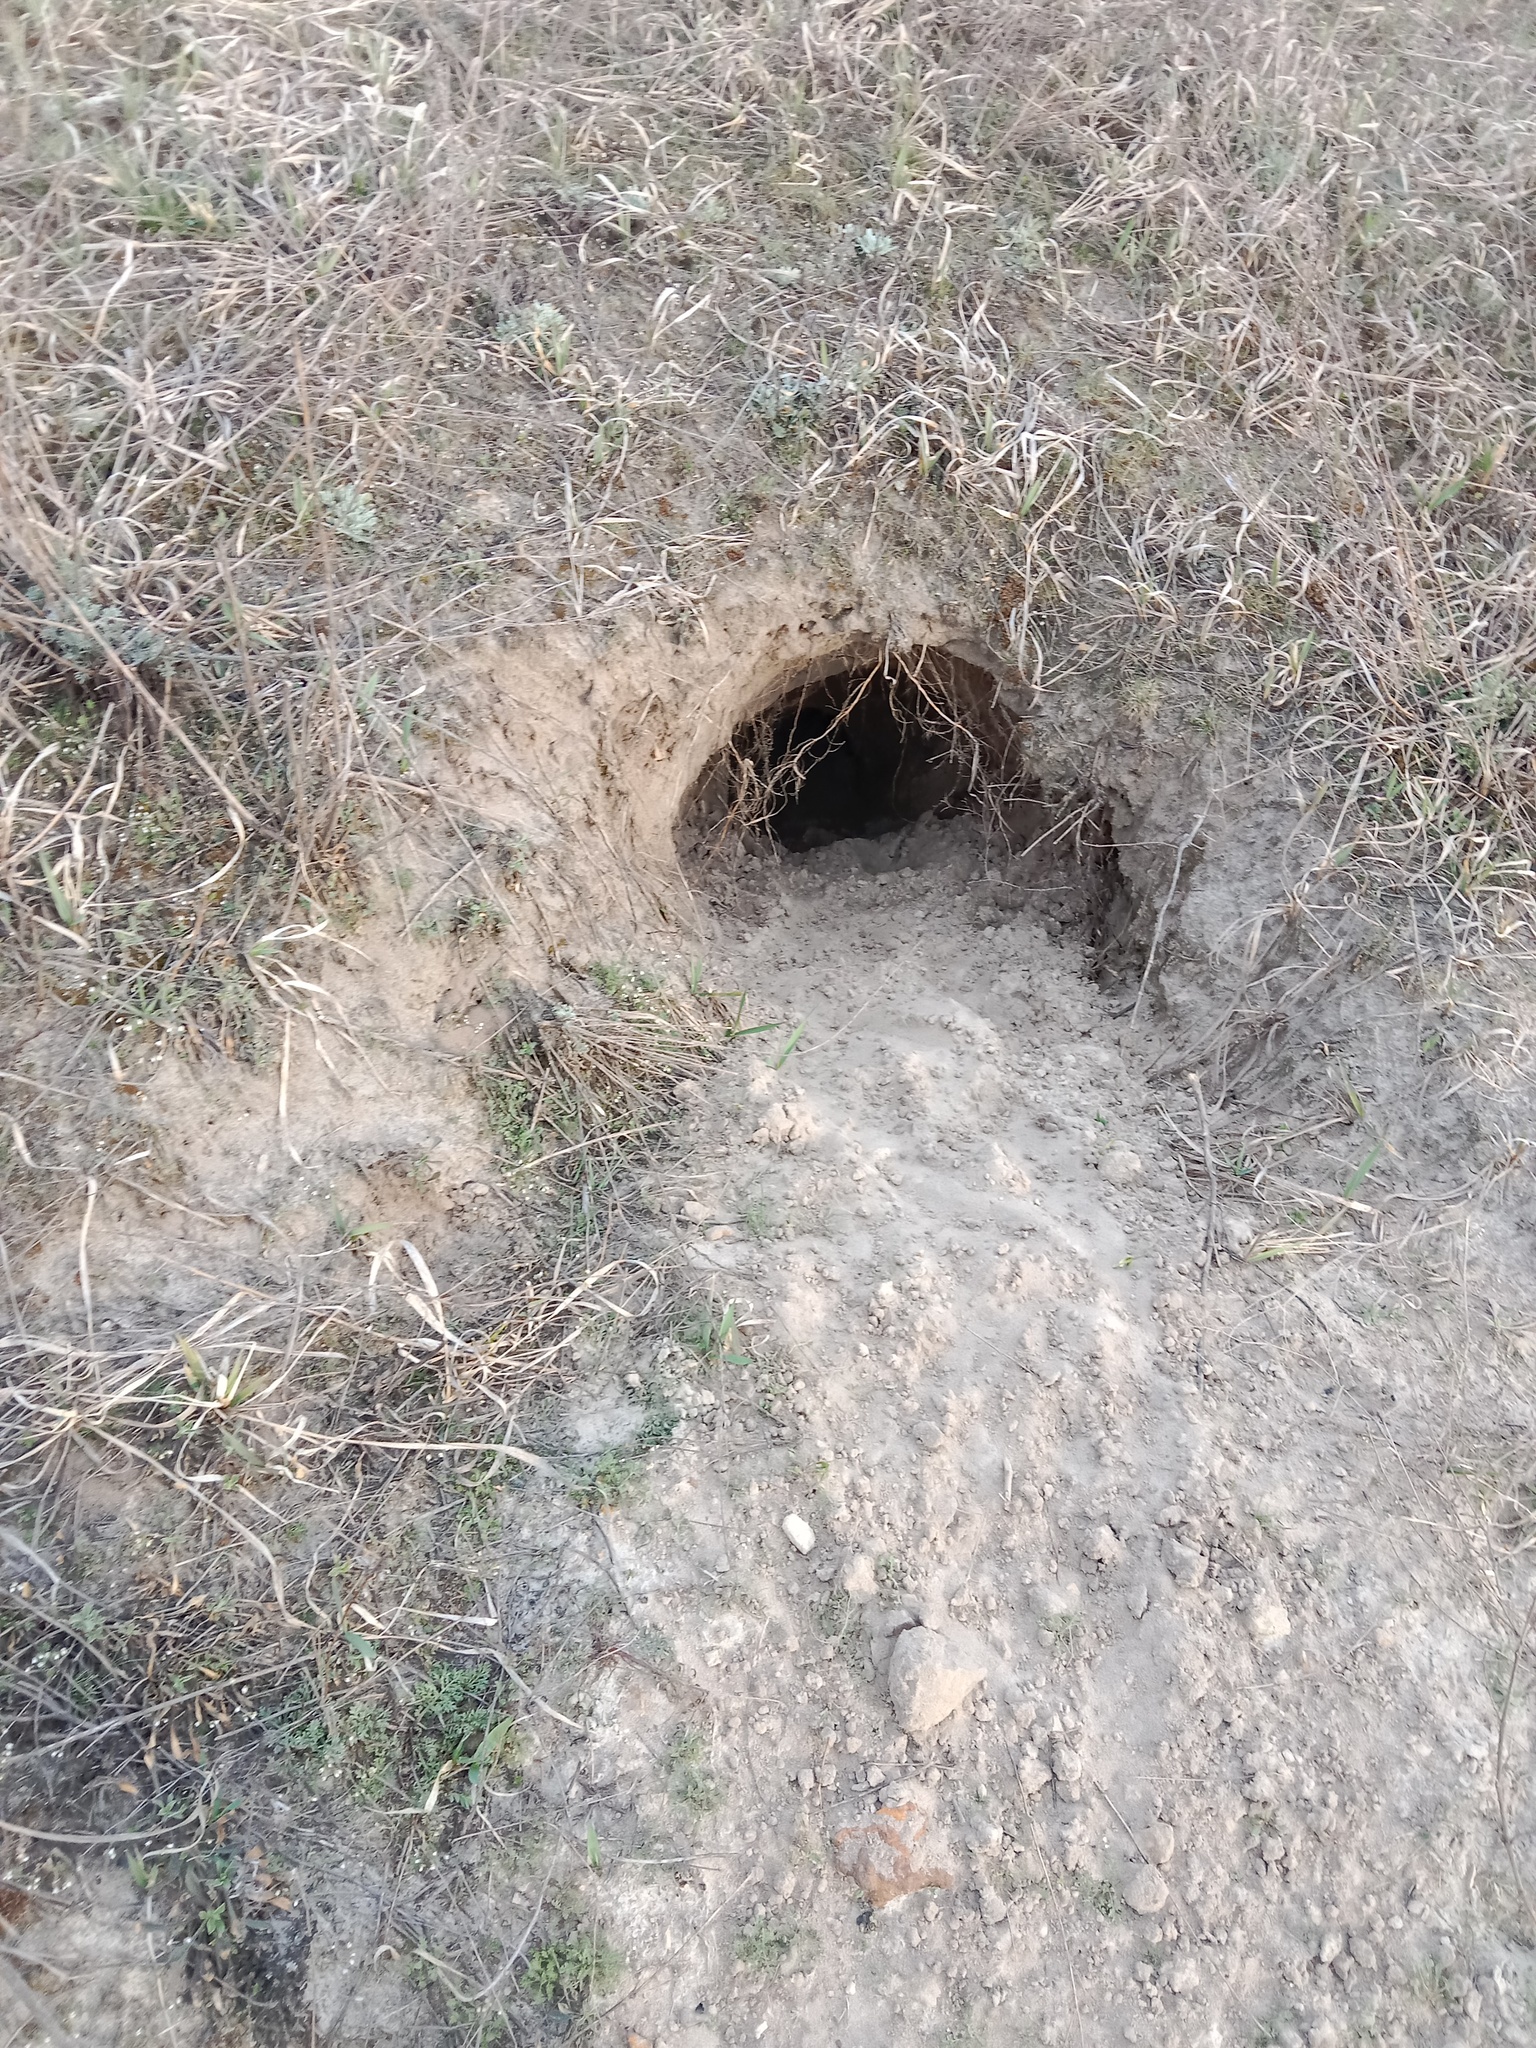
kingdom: Animalia
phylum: Chordata
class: Mammalia
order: Carnivora
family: Mustelidae
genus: Meles
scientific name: Meles meles
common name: Eurasian badger
